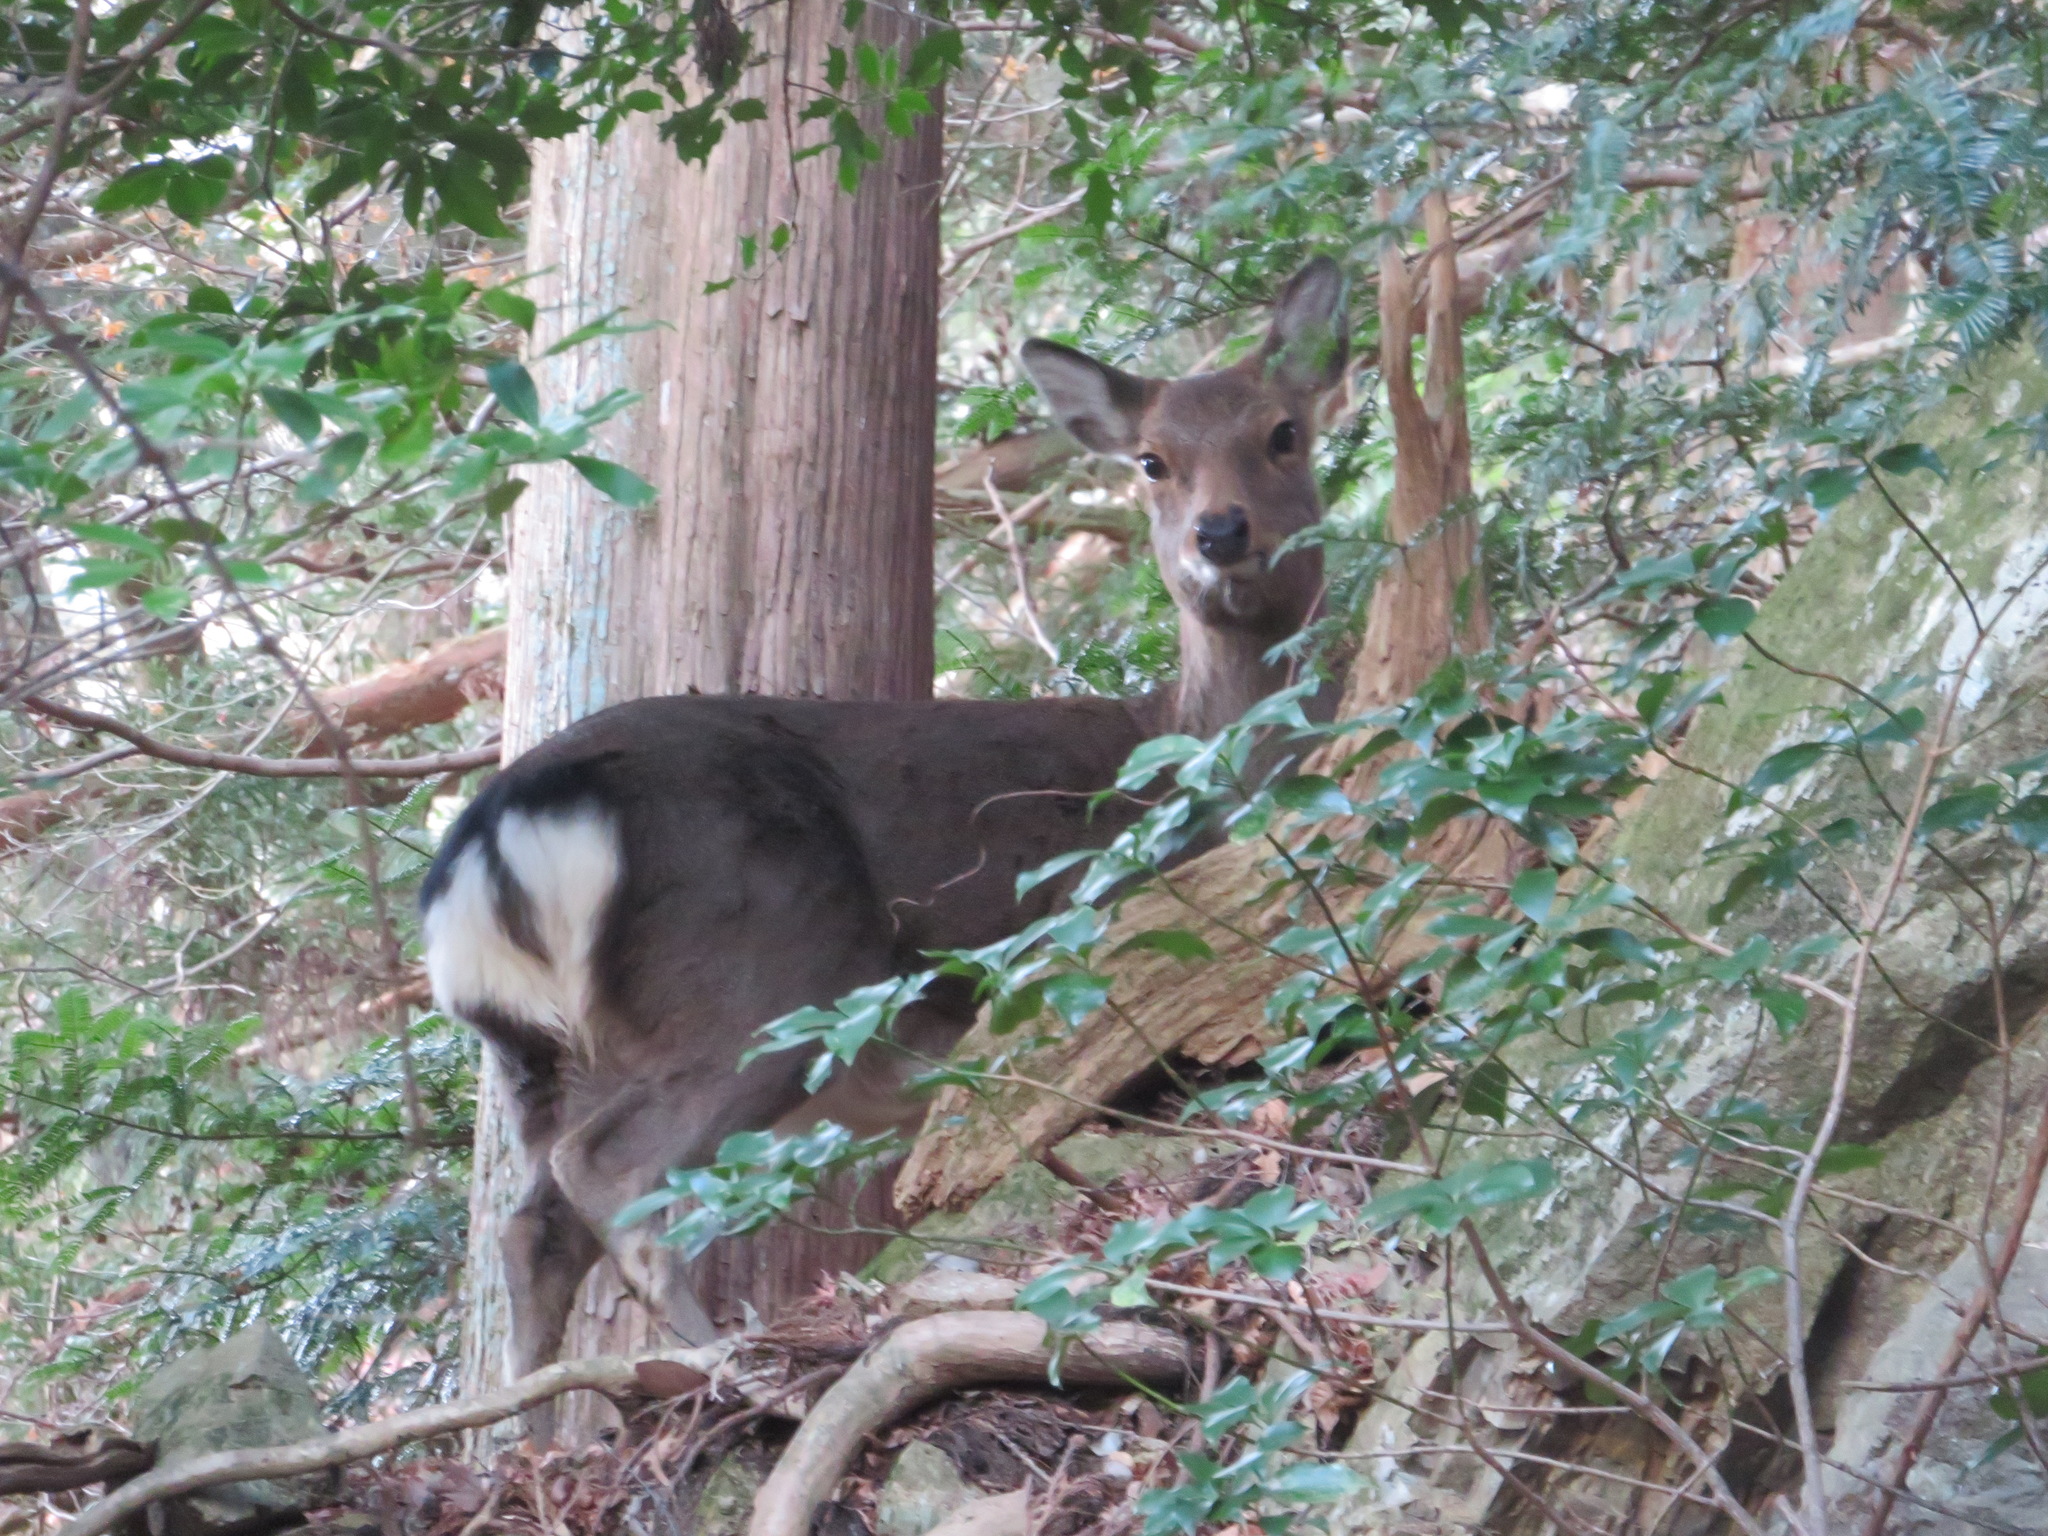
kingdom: Animalia
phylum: Chordata
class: Mammalia
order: Artiodactyla
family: Cervidae
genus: Cervus
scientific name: Cervus nippon
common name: Sika deer
